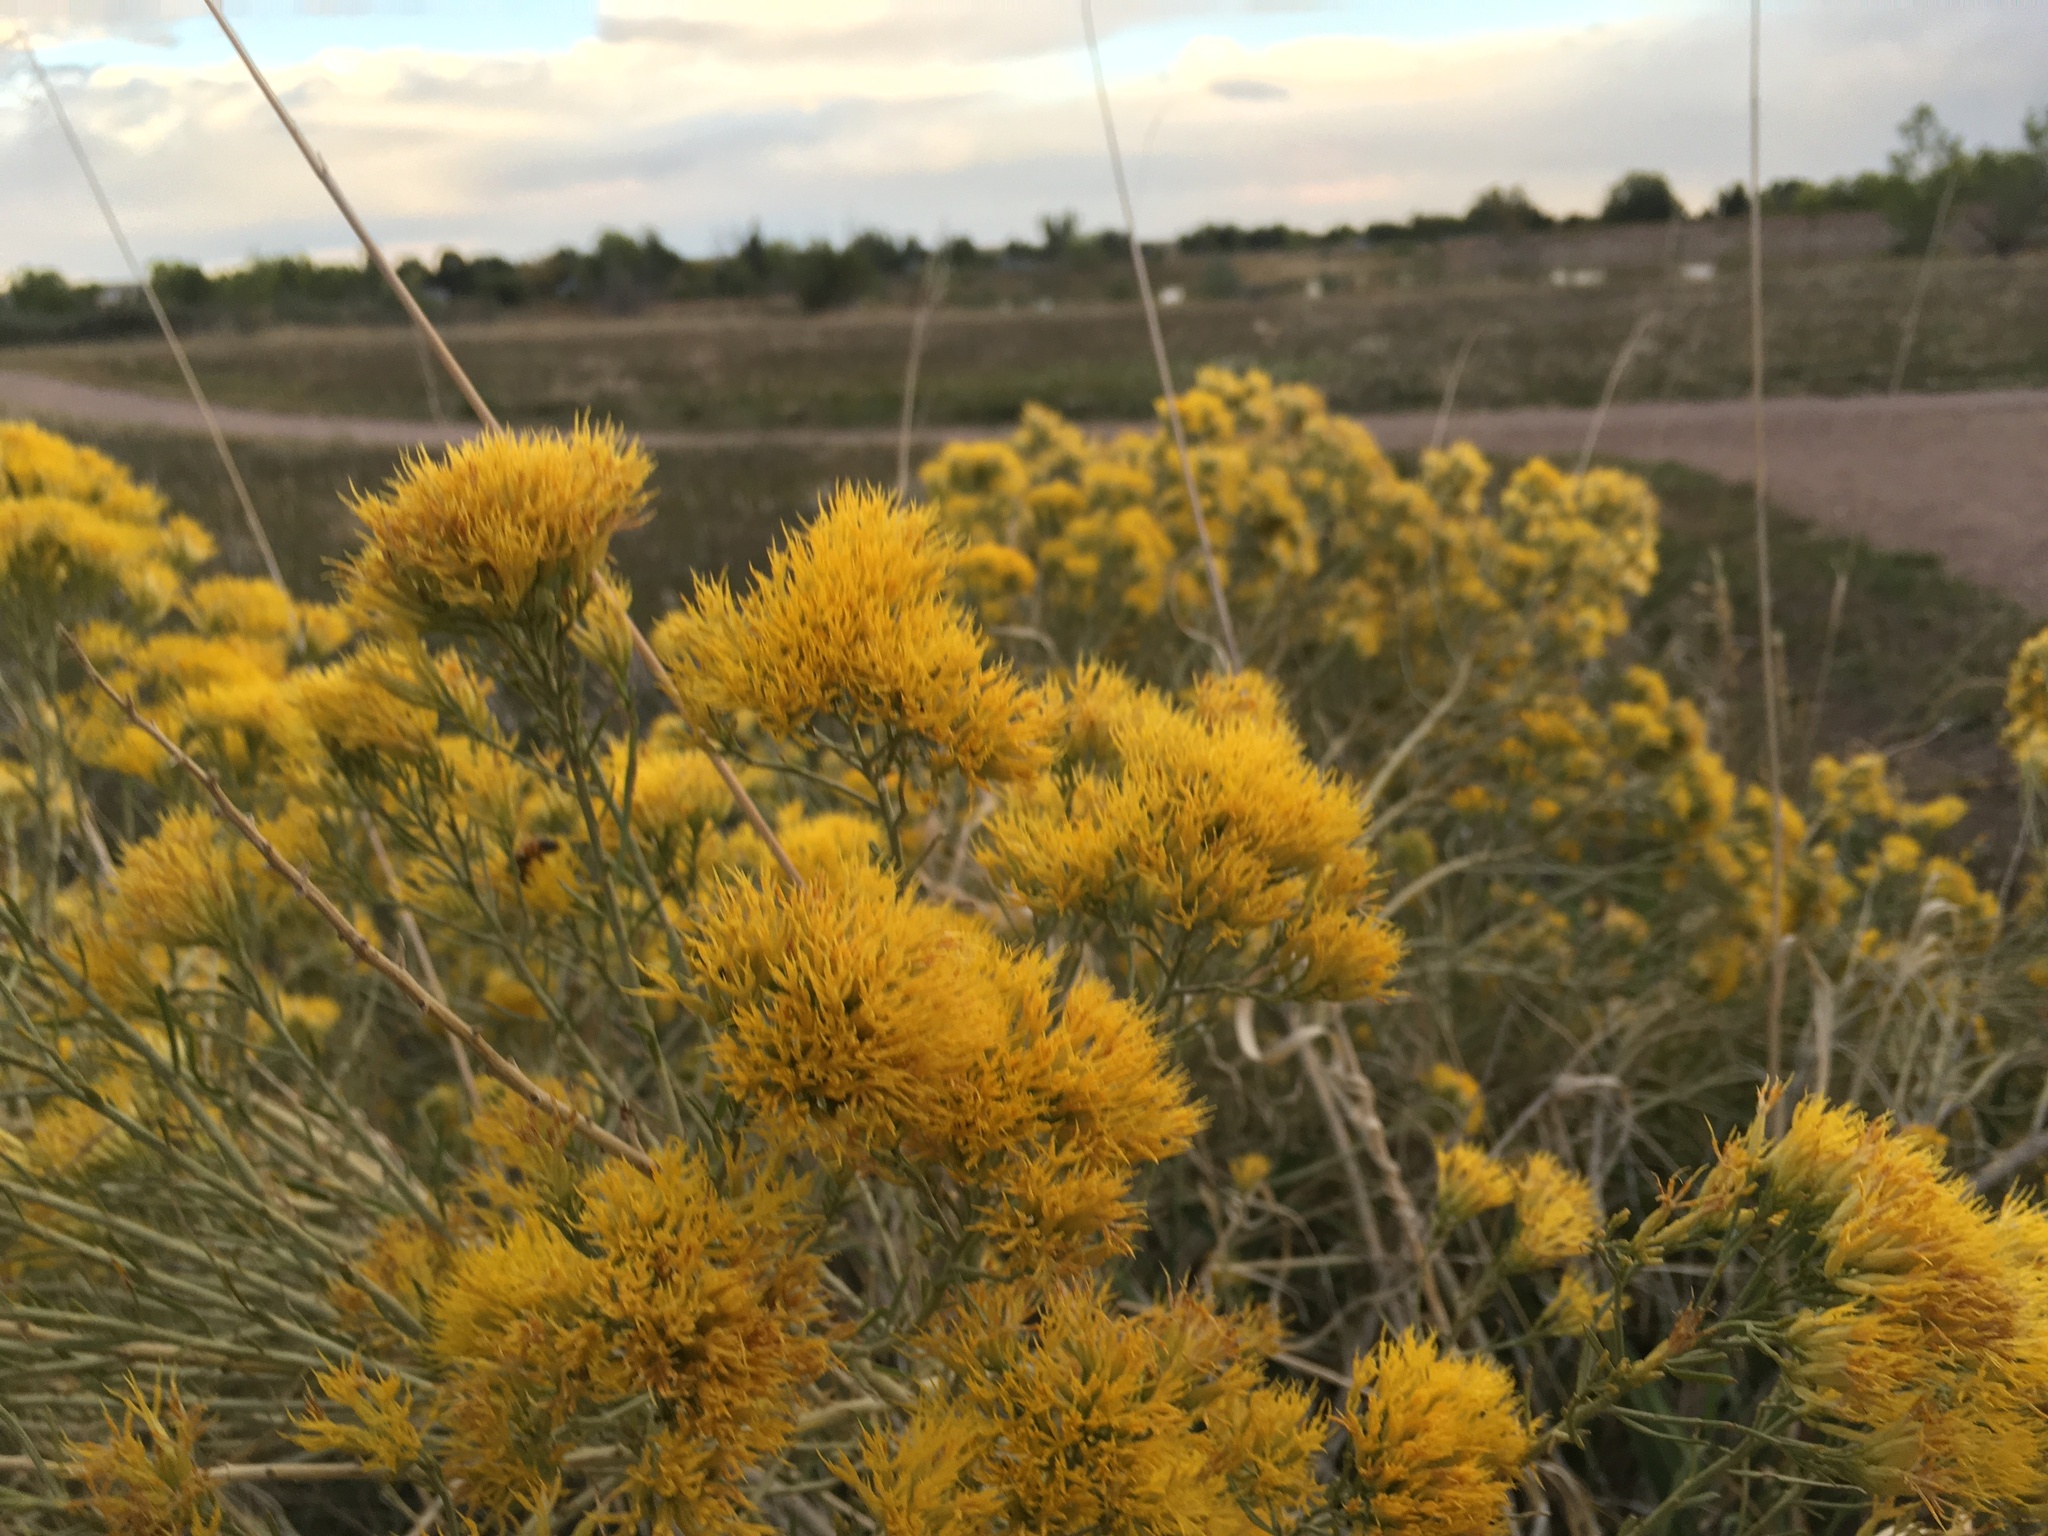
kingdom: Plantae
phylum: Tracheophyta
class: Magnoliopsida
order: Asterales
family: Asteraceae
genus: Ericameria
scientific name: Ericameria nauseosa
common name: Rubber rabbitbrush
